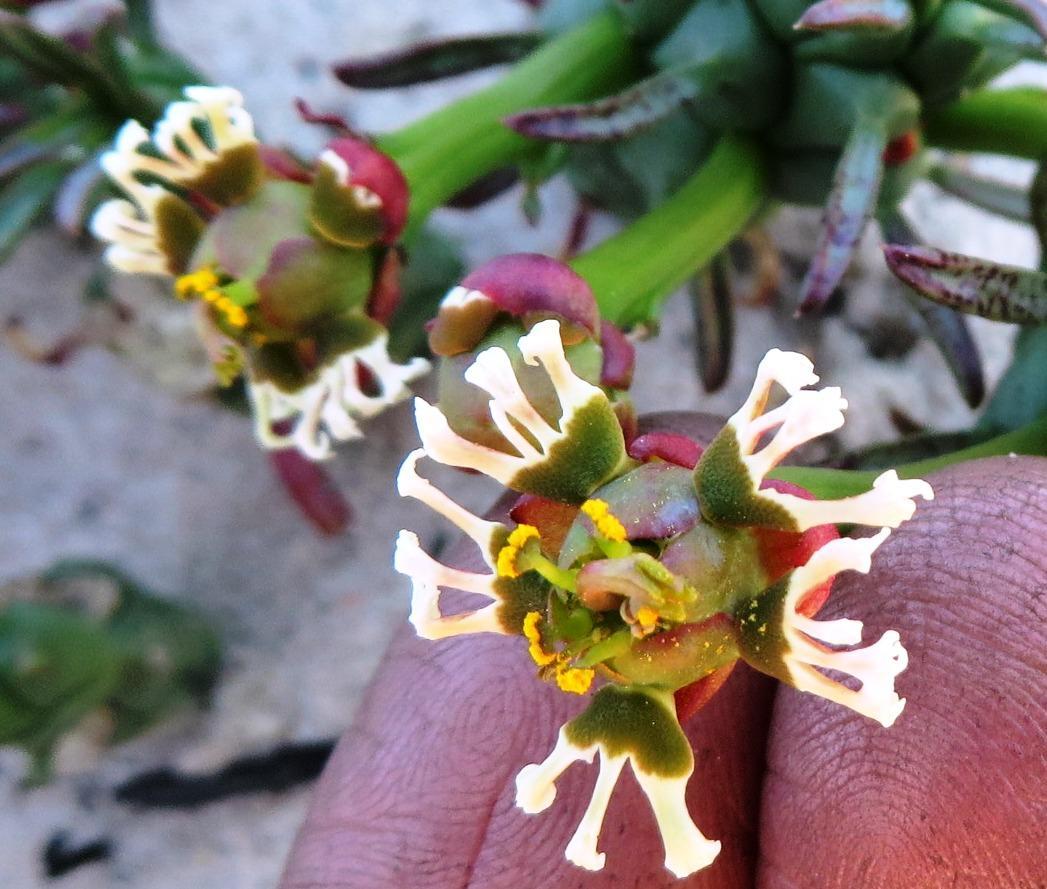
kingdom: Plantae
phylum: Tracheophyta
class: Magnoliopsida
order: Malpighiales
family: Euphorbiaceae
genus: Euphorbia
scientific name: Euphorbia caput-medusae
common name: Medusa's-head
